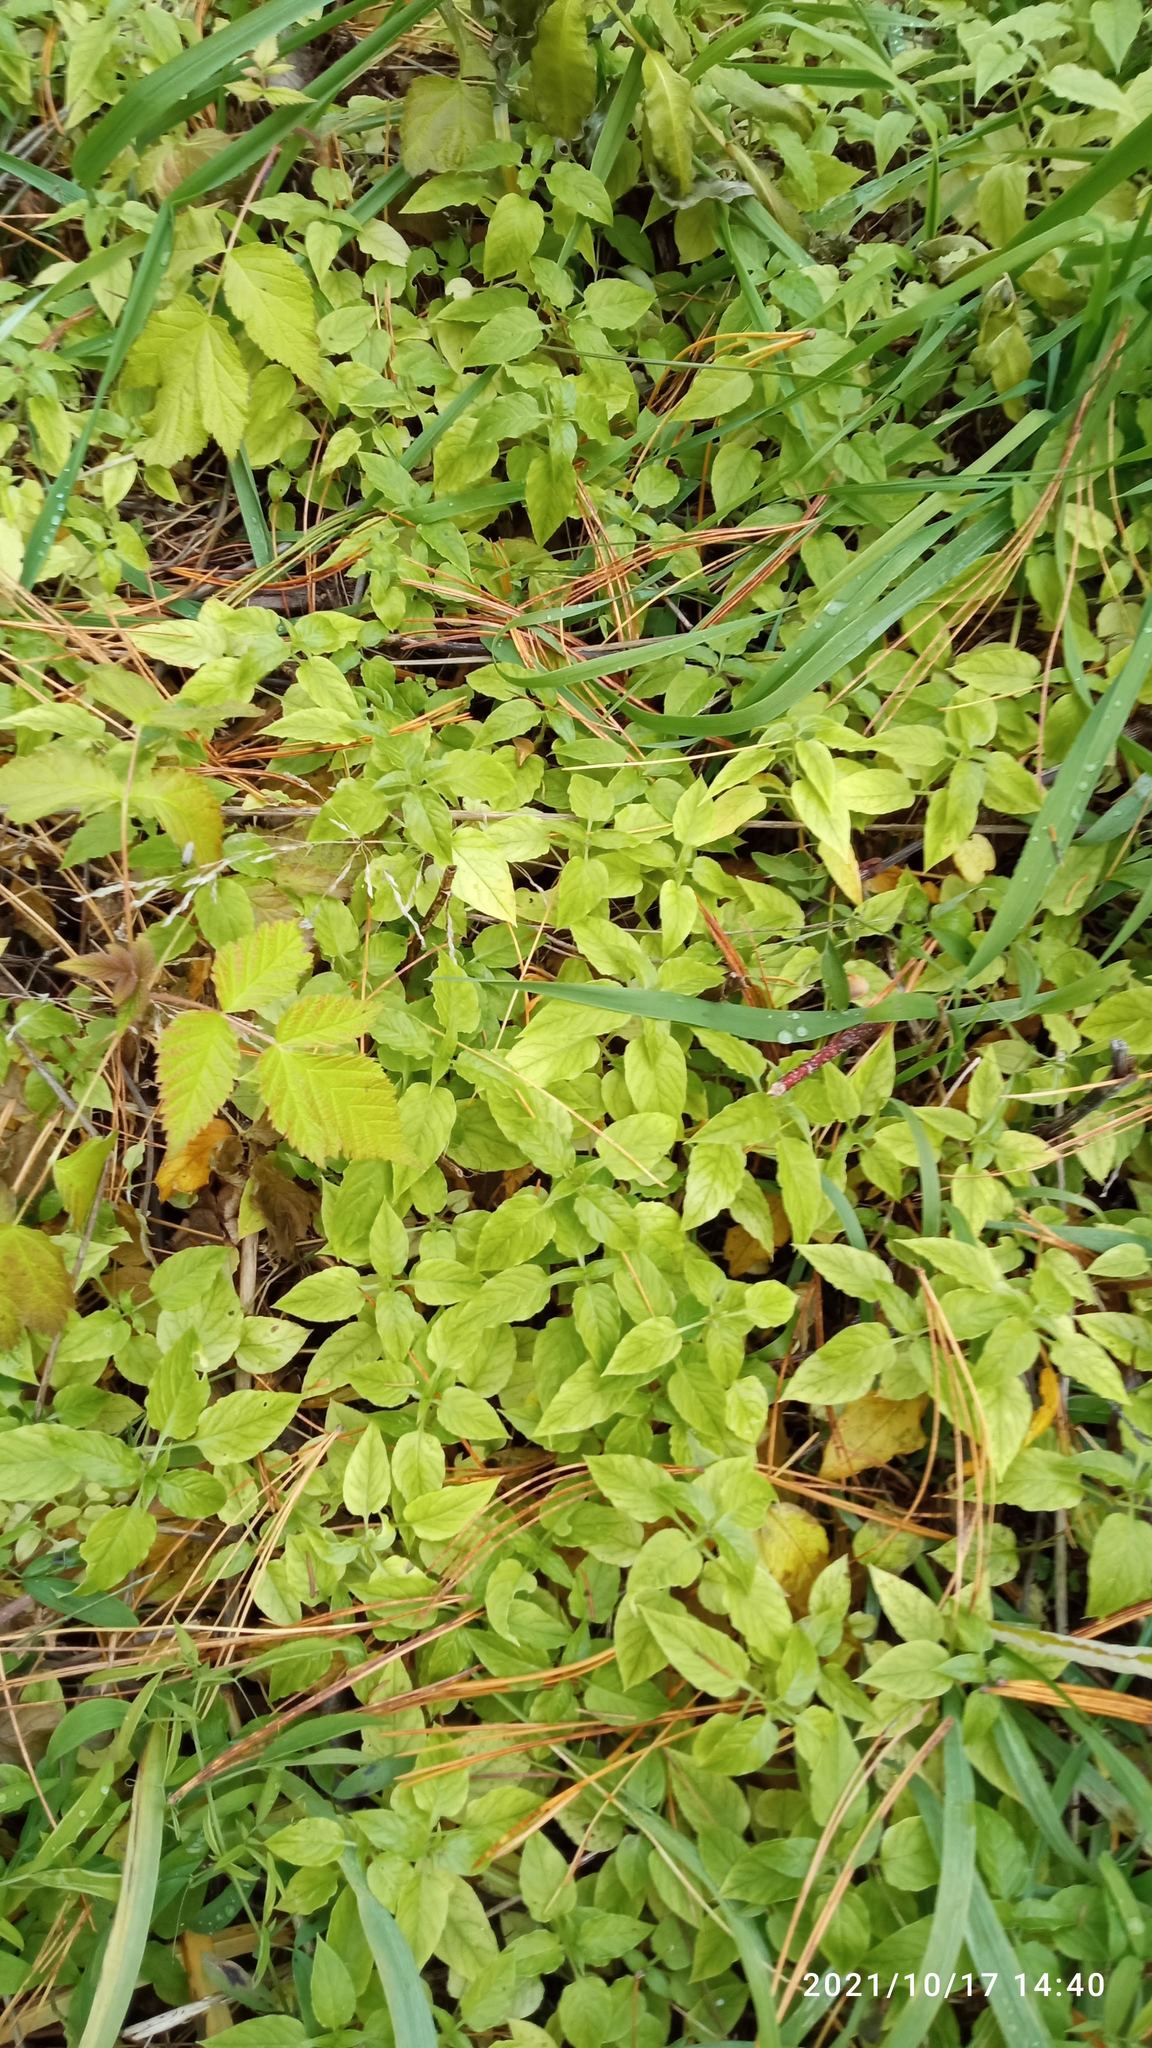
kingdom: Plantae
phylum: Tracheophyta
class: Magnoliopsida
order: Caryophyllales
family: Caryophyllaceae
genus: Stellaria
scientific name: Stellaria bungeana
